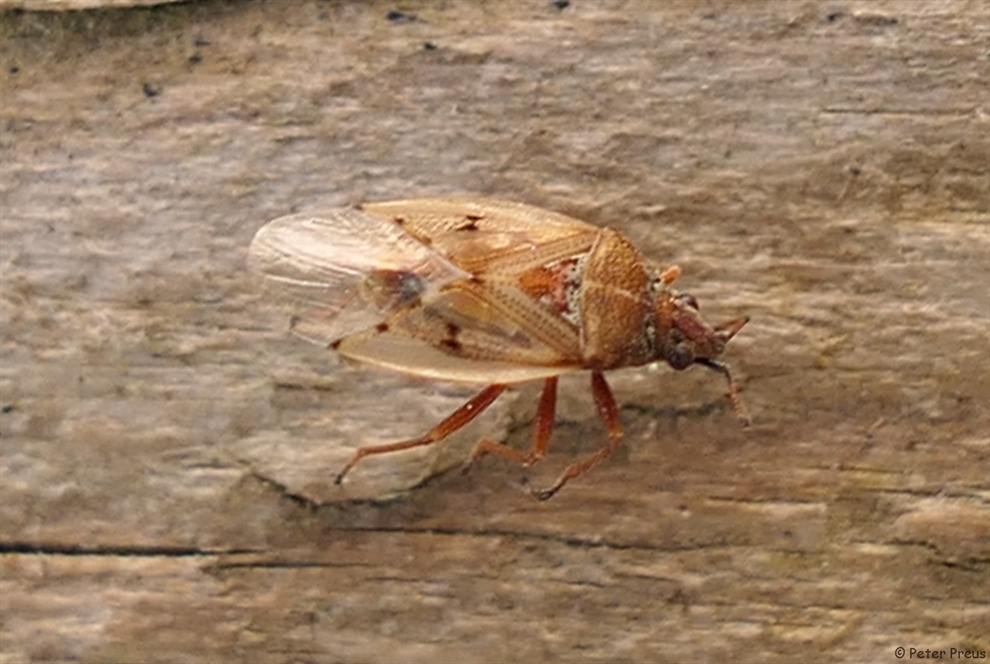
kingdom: Animalia
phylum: Arthropoda
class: Insecta
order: Hemiptera
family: Lygaeidae
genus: Kleidocerys
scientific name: Kleidocerys resedae
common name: Birch catkin bug
